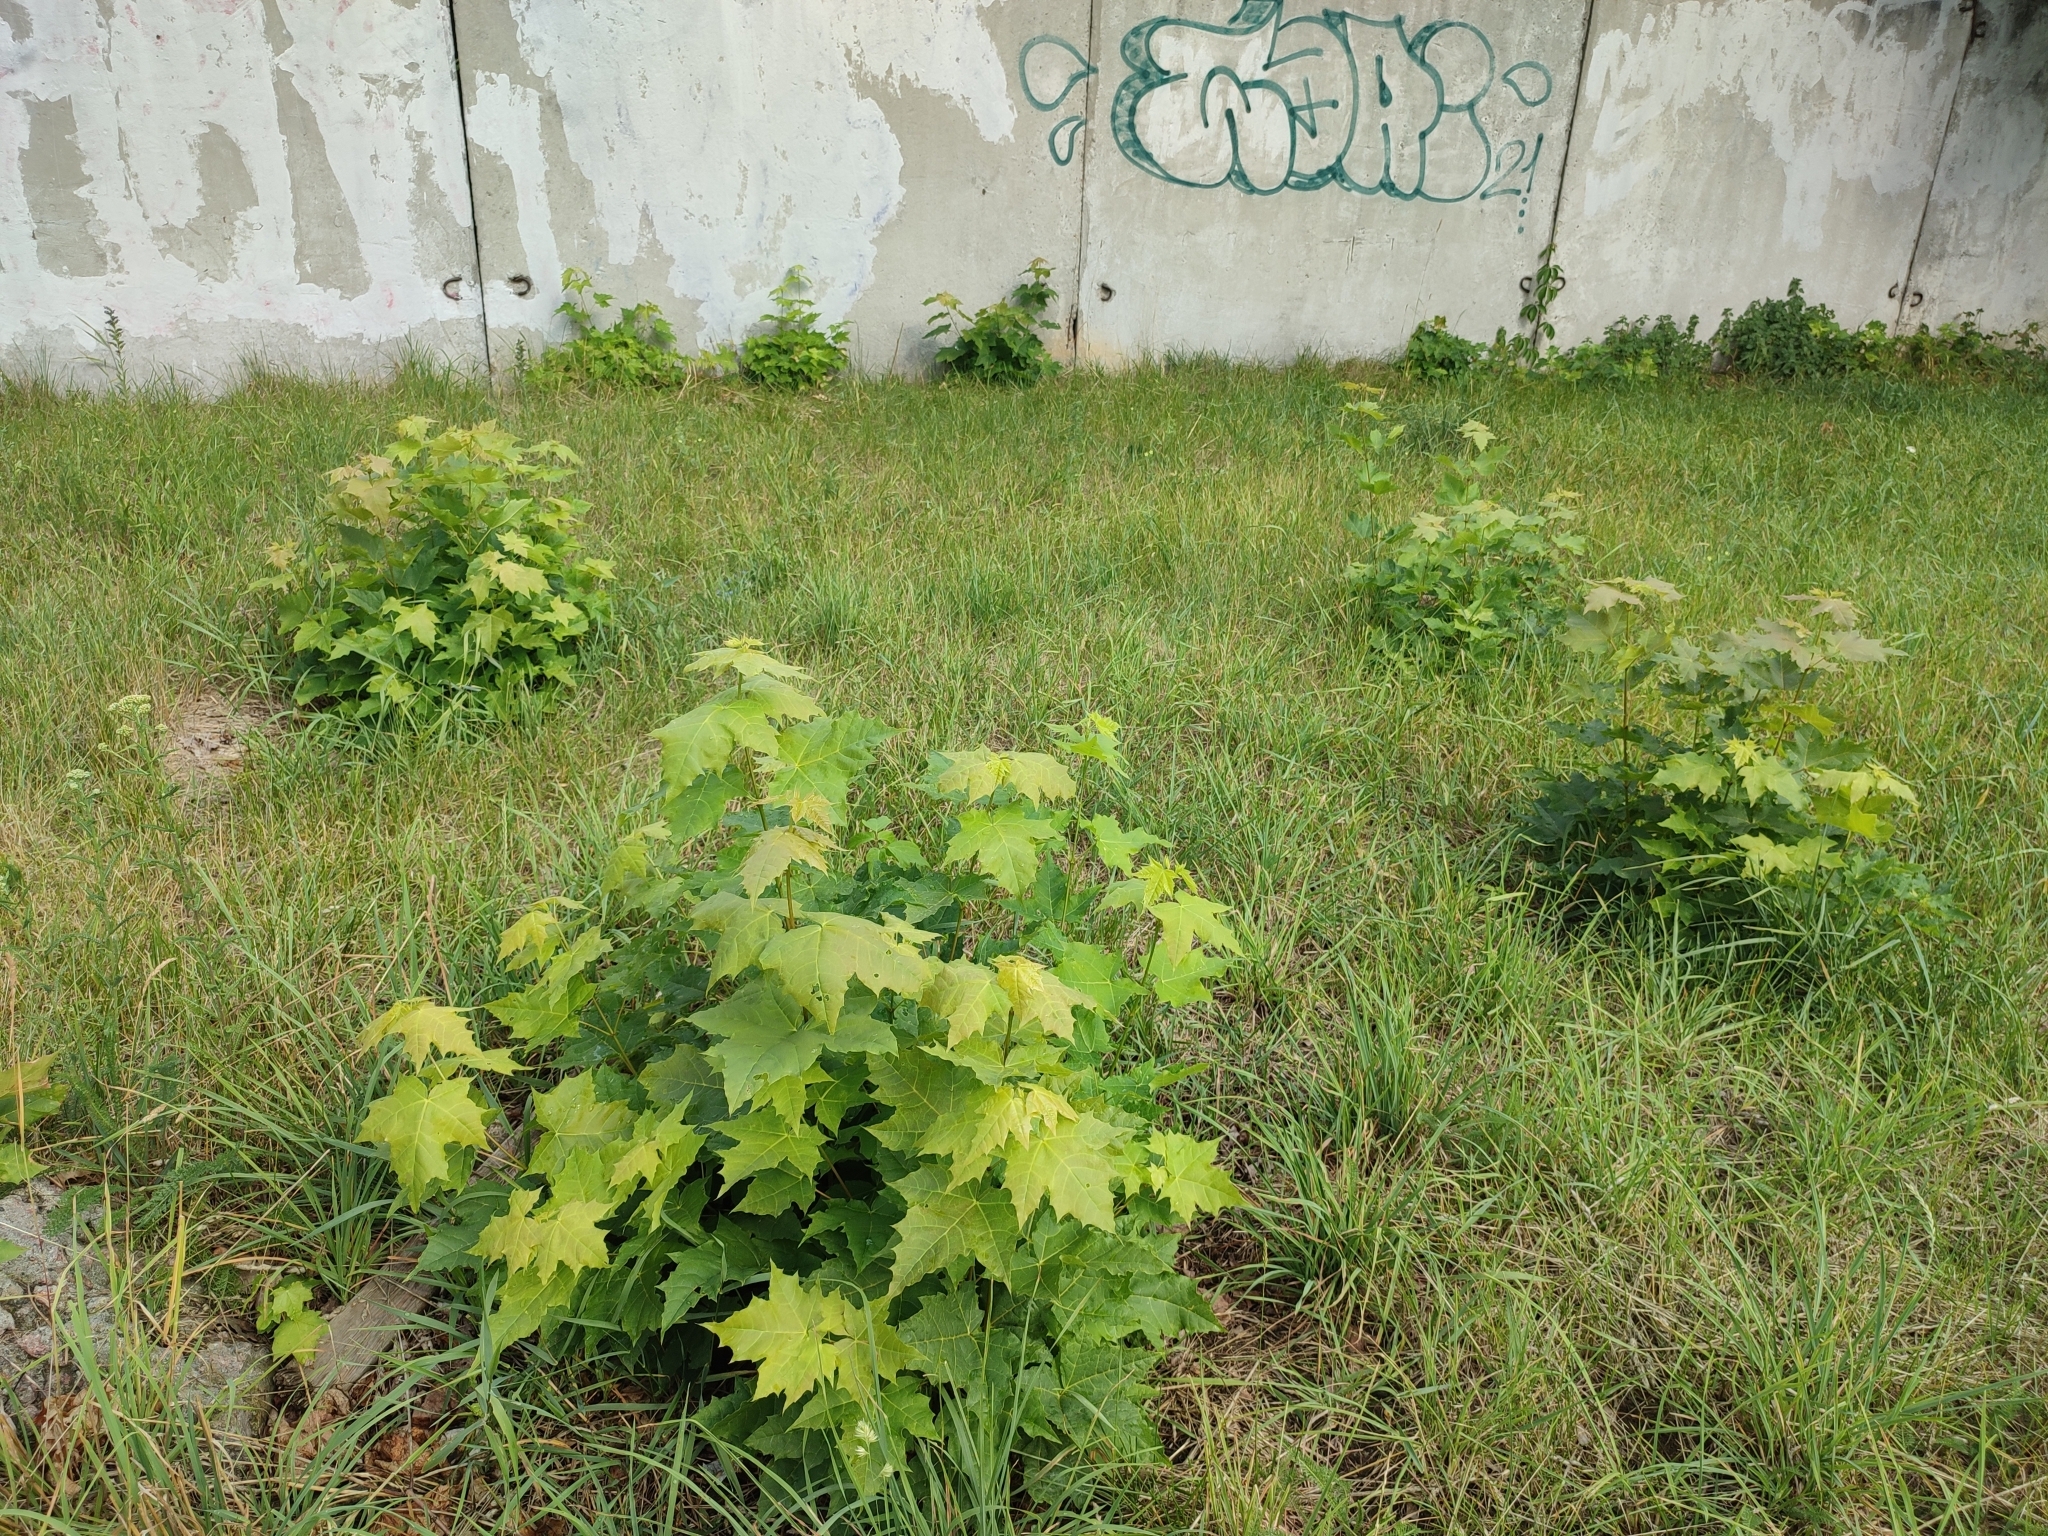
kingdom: Plantae
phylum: Tracheophyta
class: Magnoliopsida
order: Sapindales
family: Sapindaceae
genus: Acer
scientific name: Acer platanoides
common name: Norway maple
